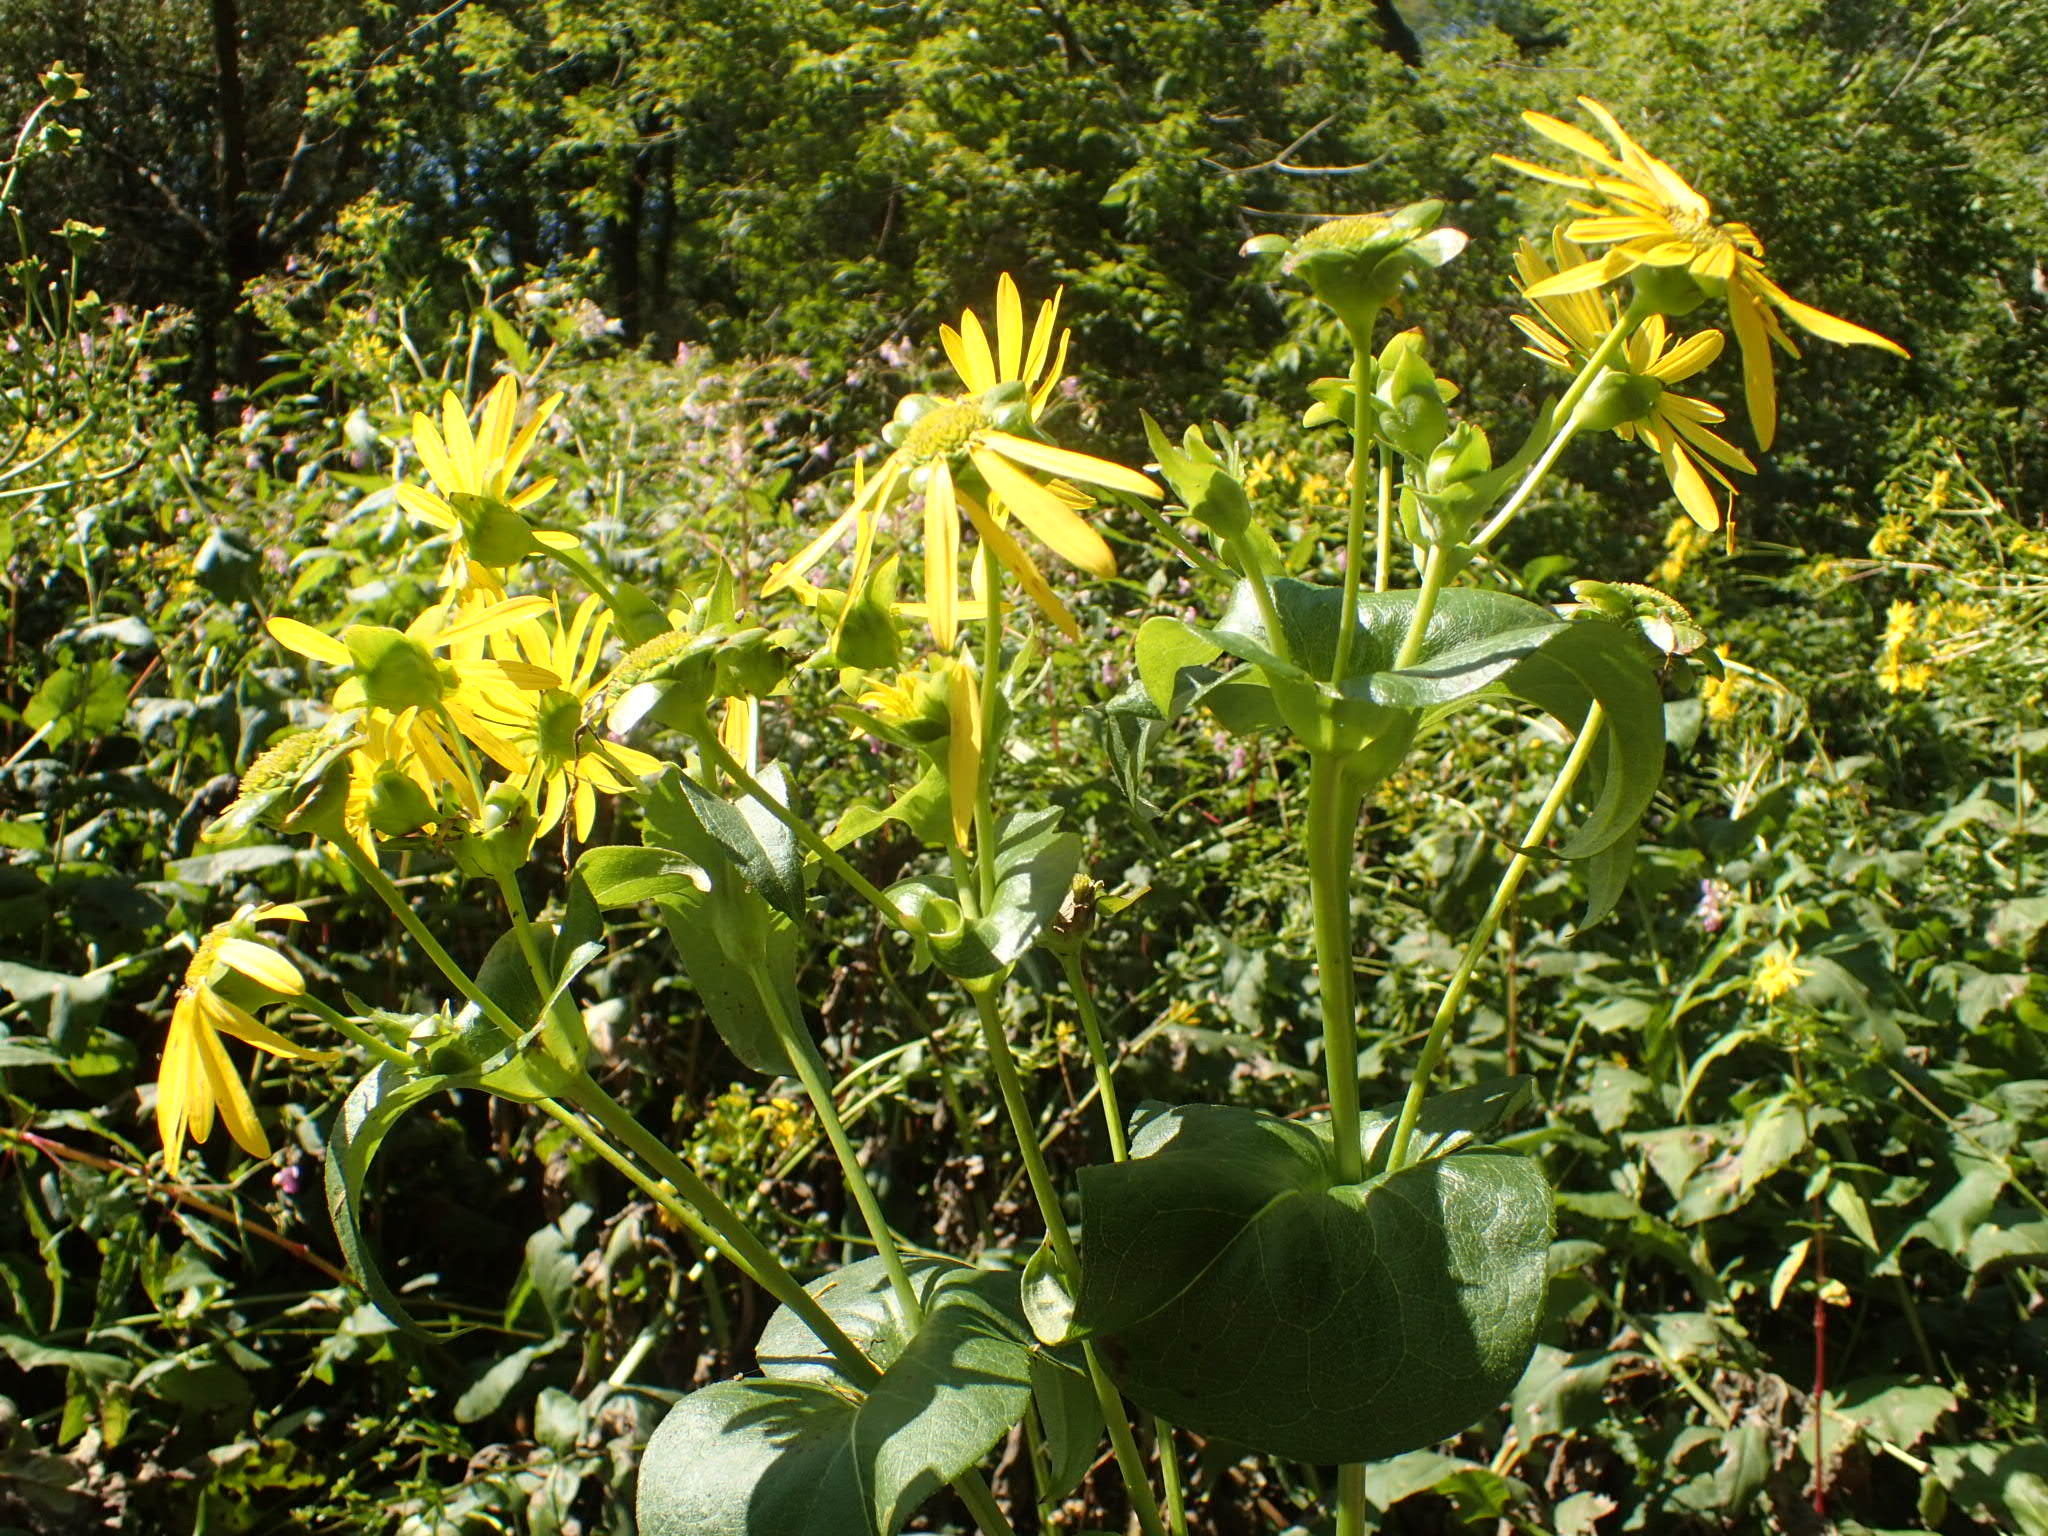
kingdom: Plantae
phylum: Tracheophyta
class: Magnoliopsida
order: Asterales
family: Asteraceae
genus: Silphium
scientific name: Silphium perfoliatum
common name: Cup-plant
